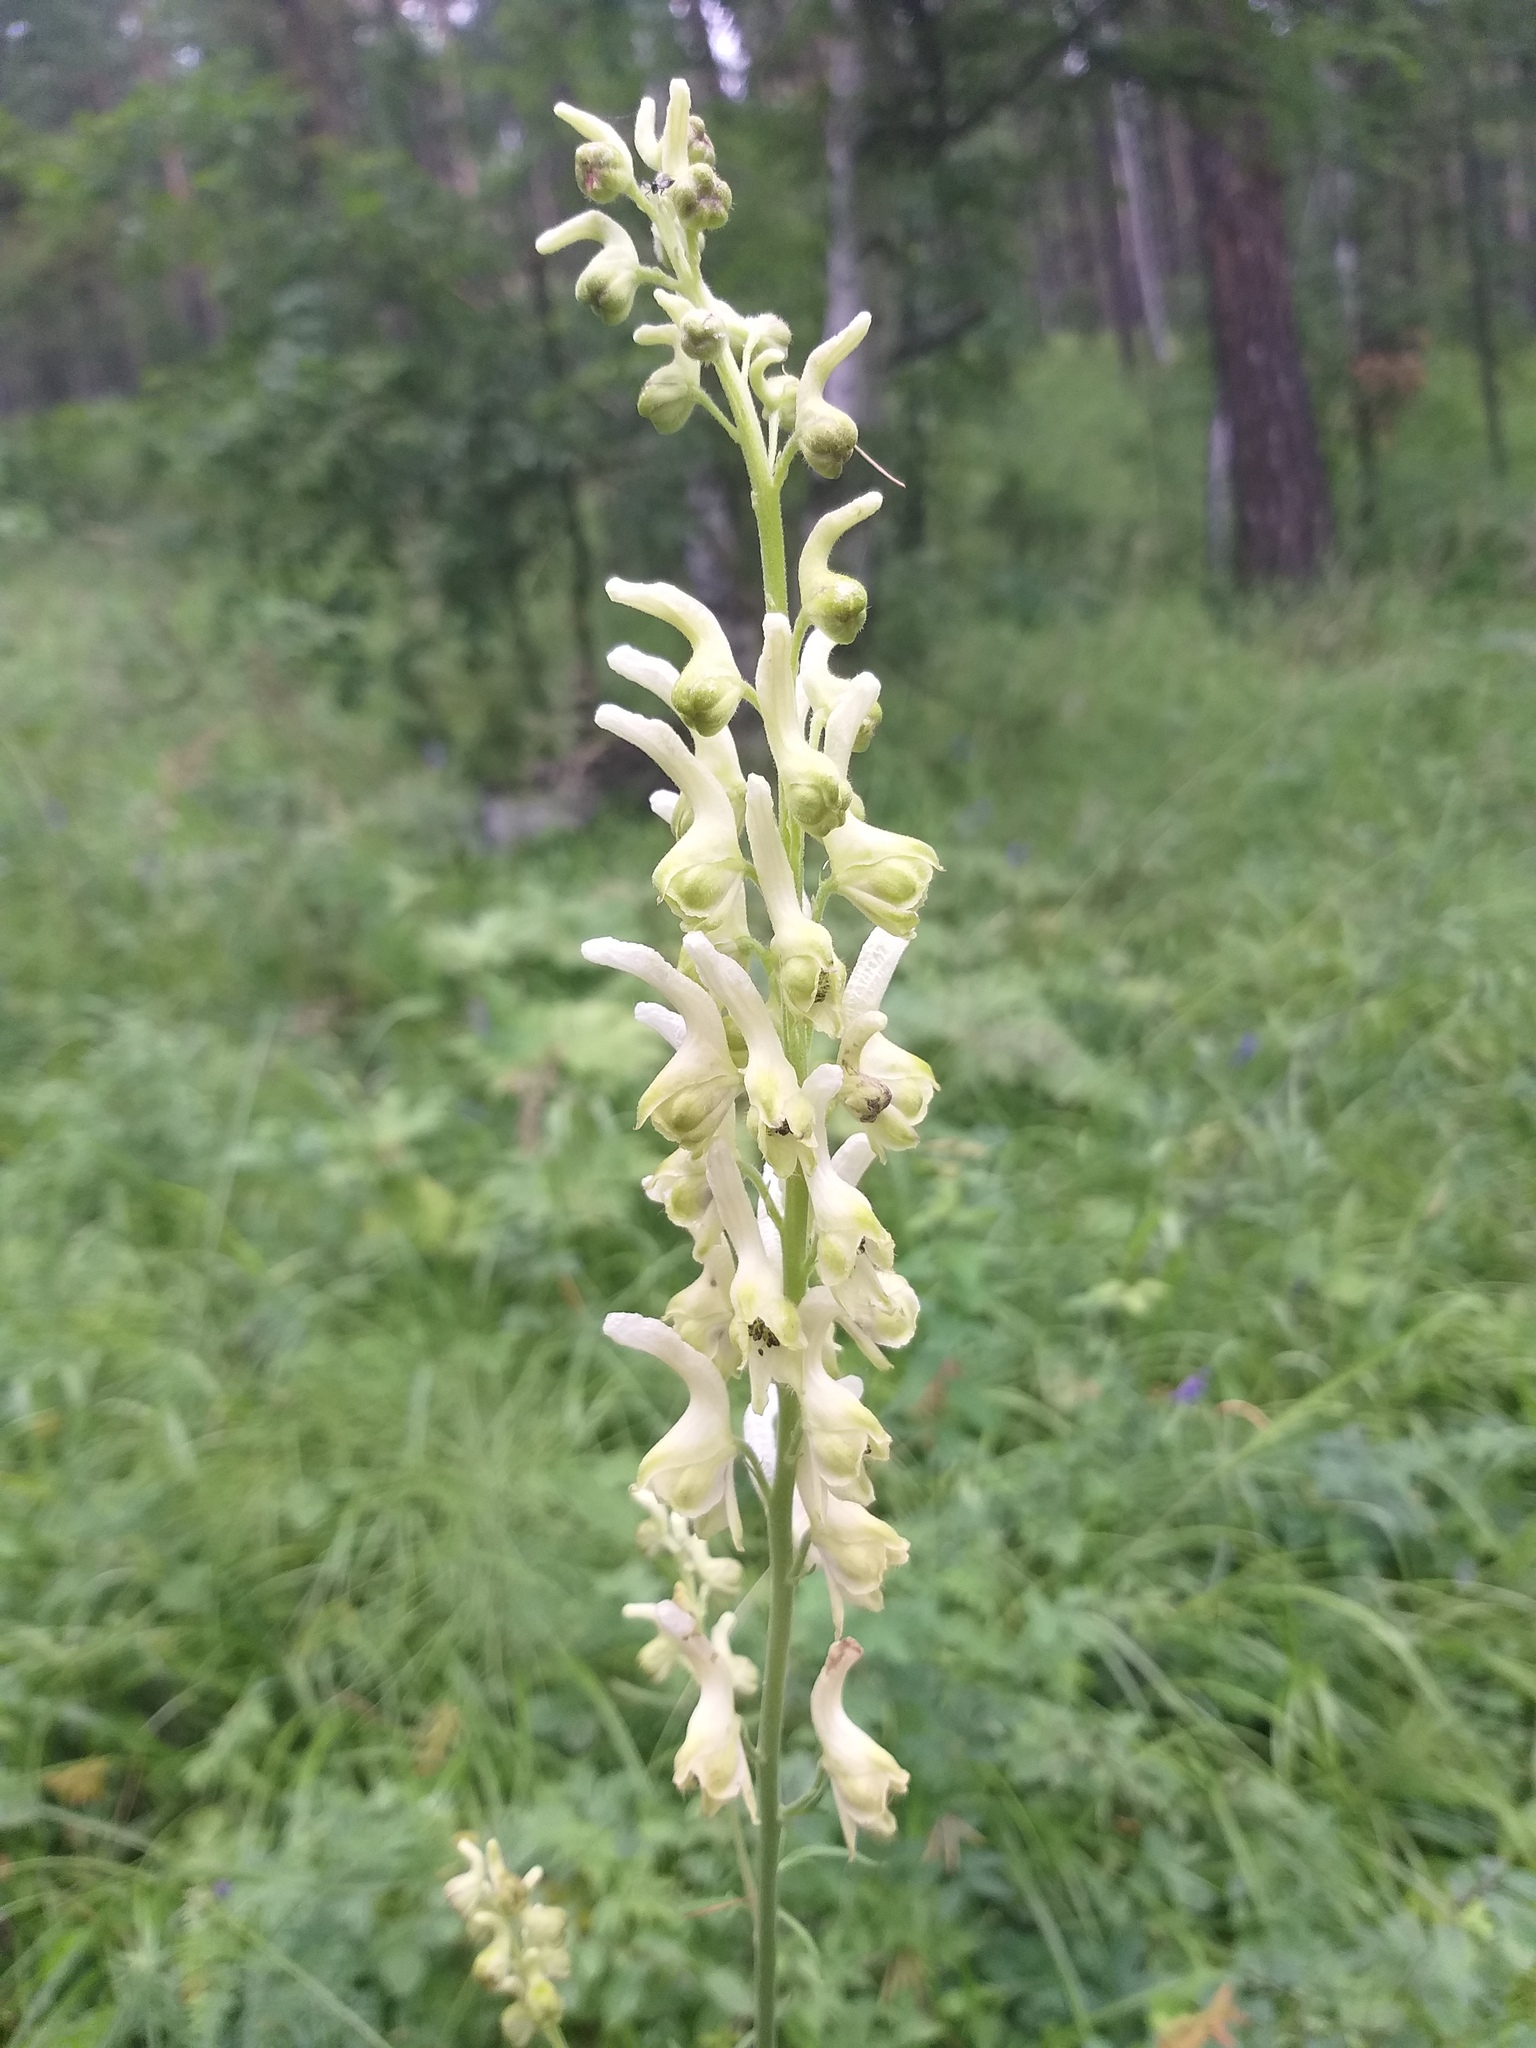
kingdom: Plantae
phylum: Tracheophyta
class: Magnoliopsida
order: Ranunculales
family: Ranunculaceae
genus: Aconitum
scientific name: Aconitum barbatum
